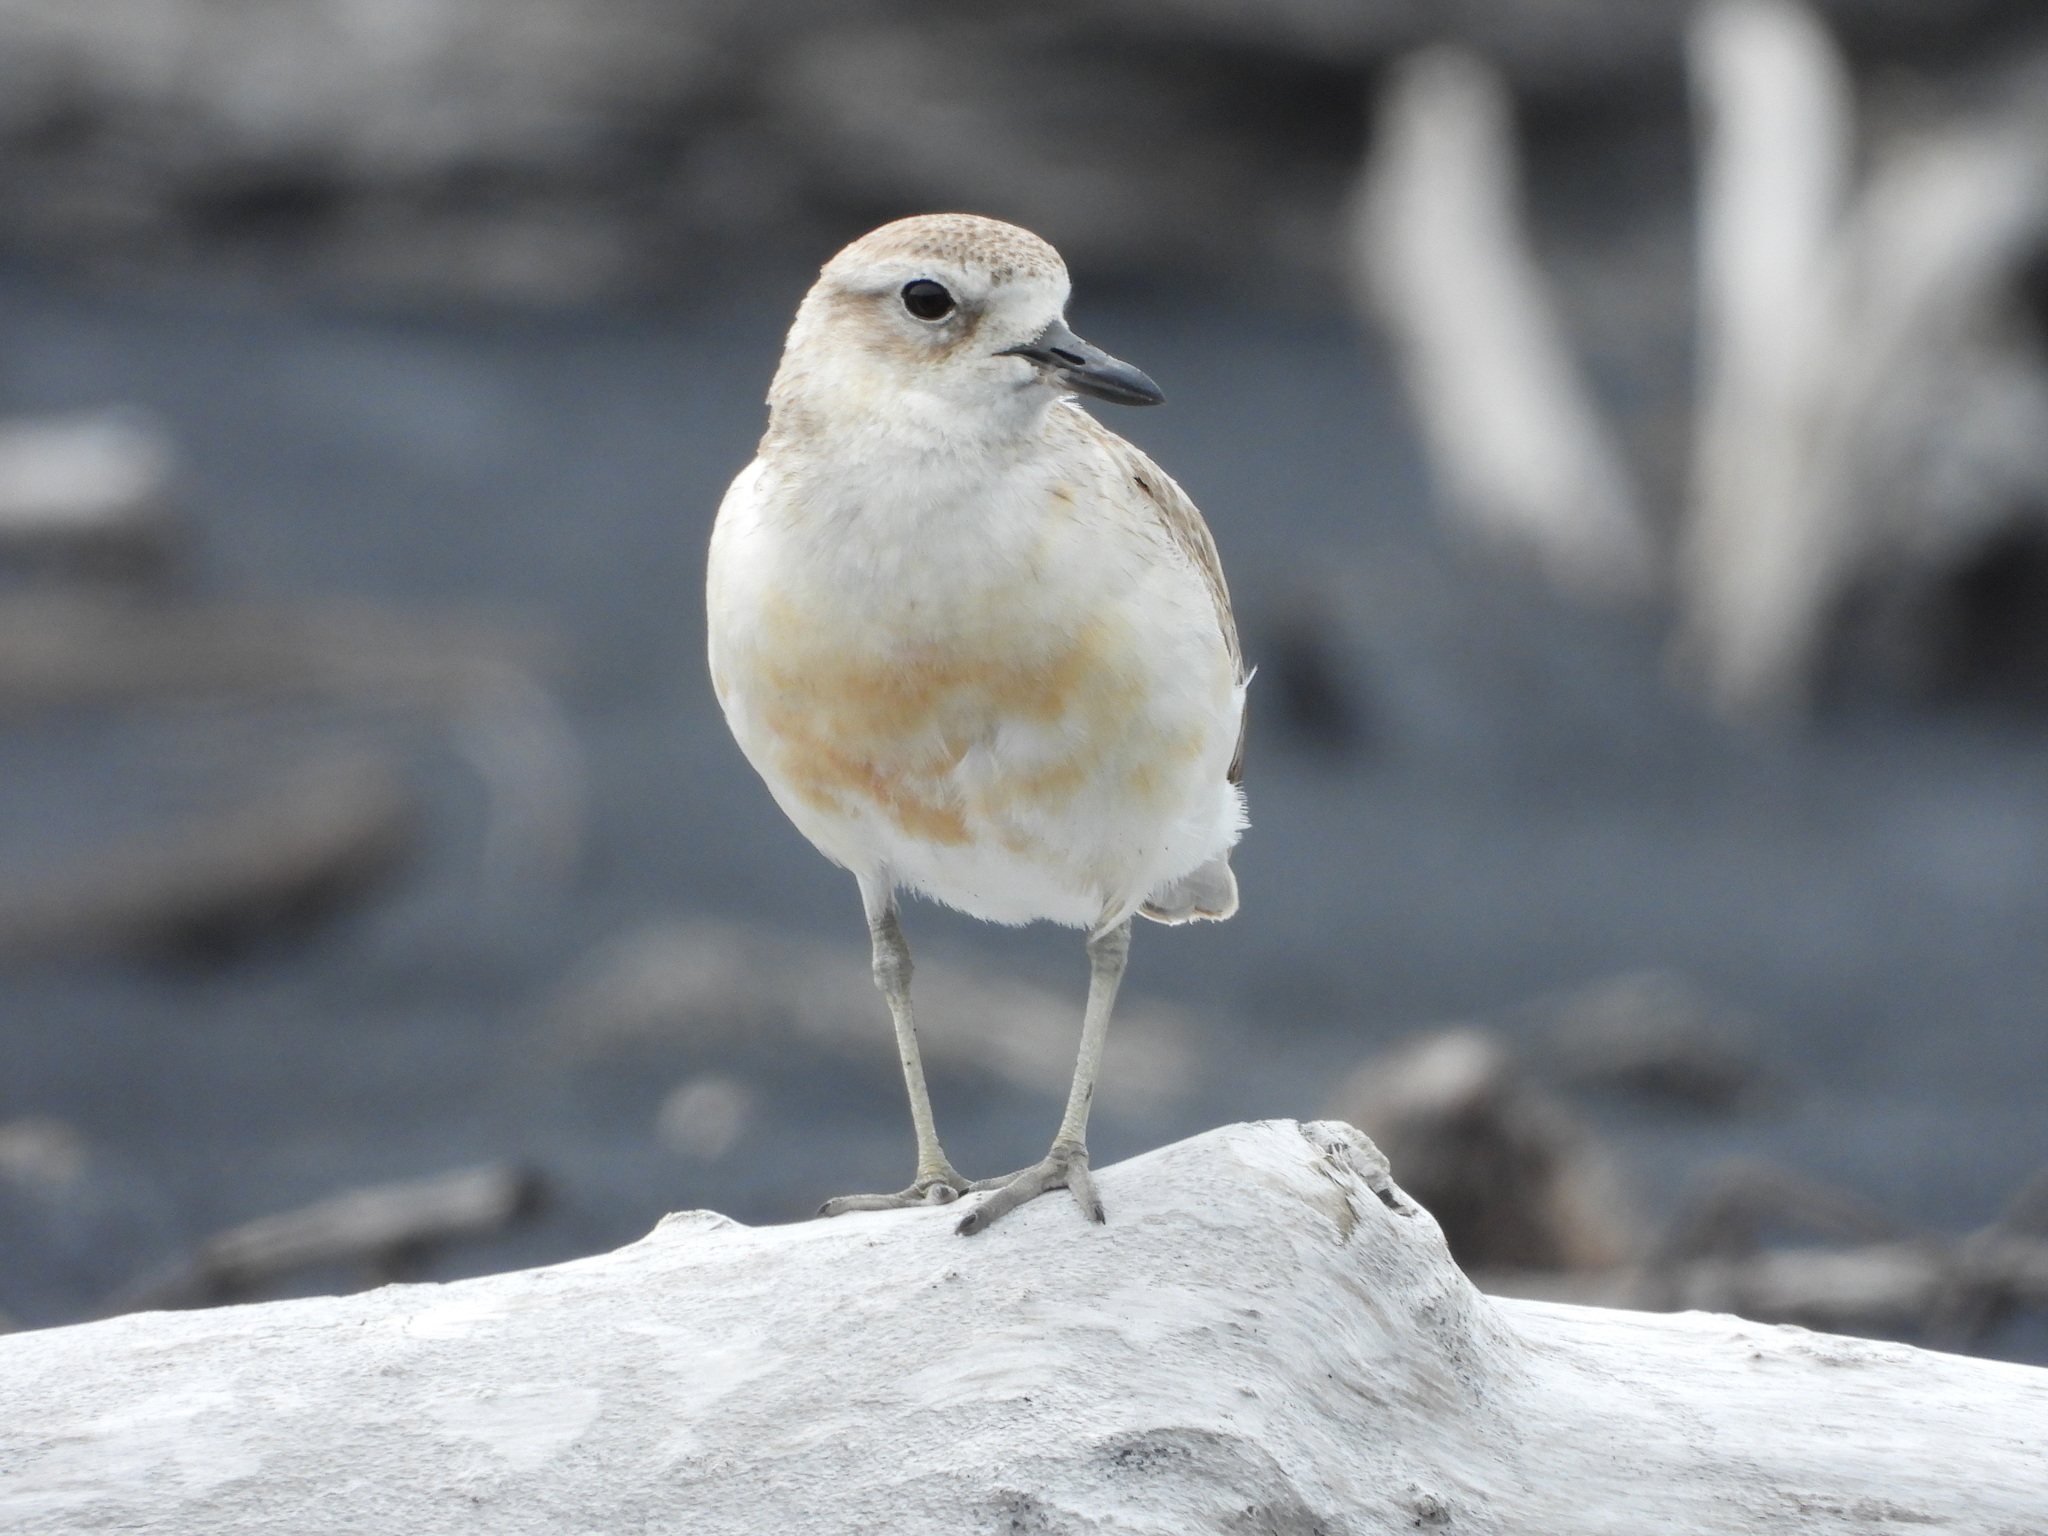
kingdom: Animalia
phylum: Chordata
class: Aves
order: Charadriiformes
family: Charadriidae
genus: Anarhynchus
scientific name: Anarhynchus
